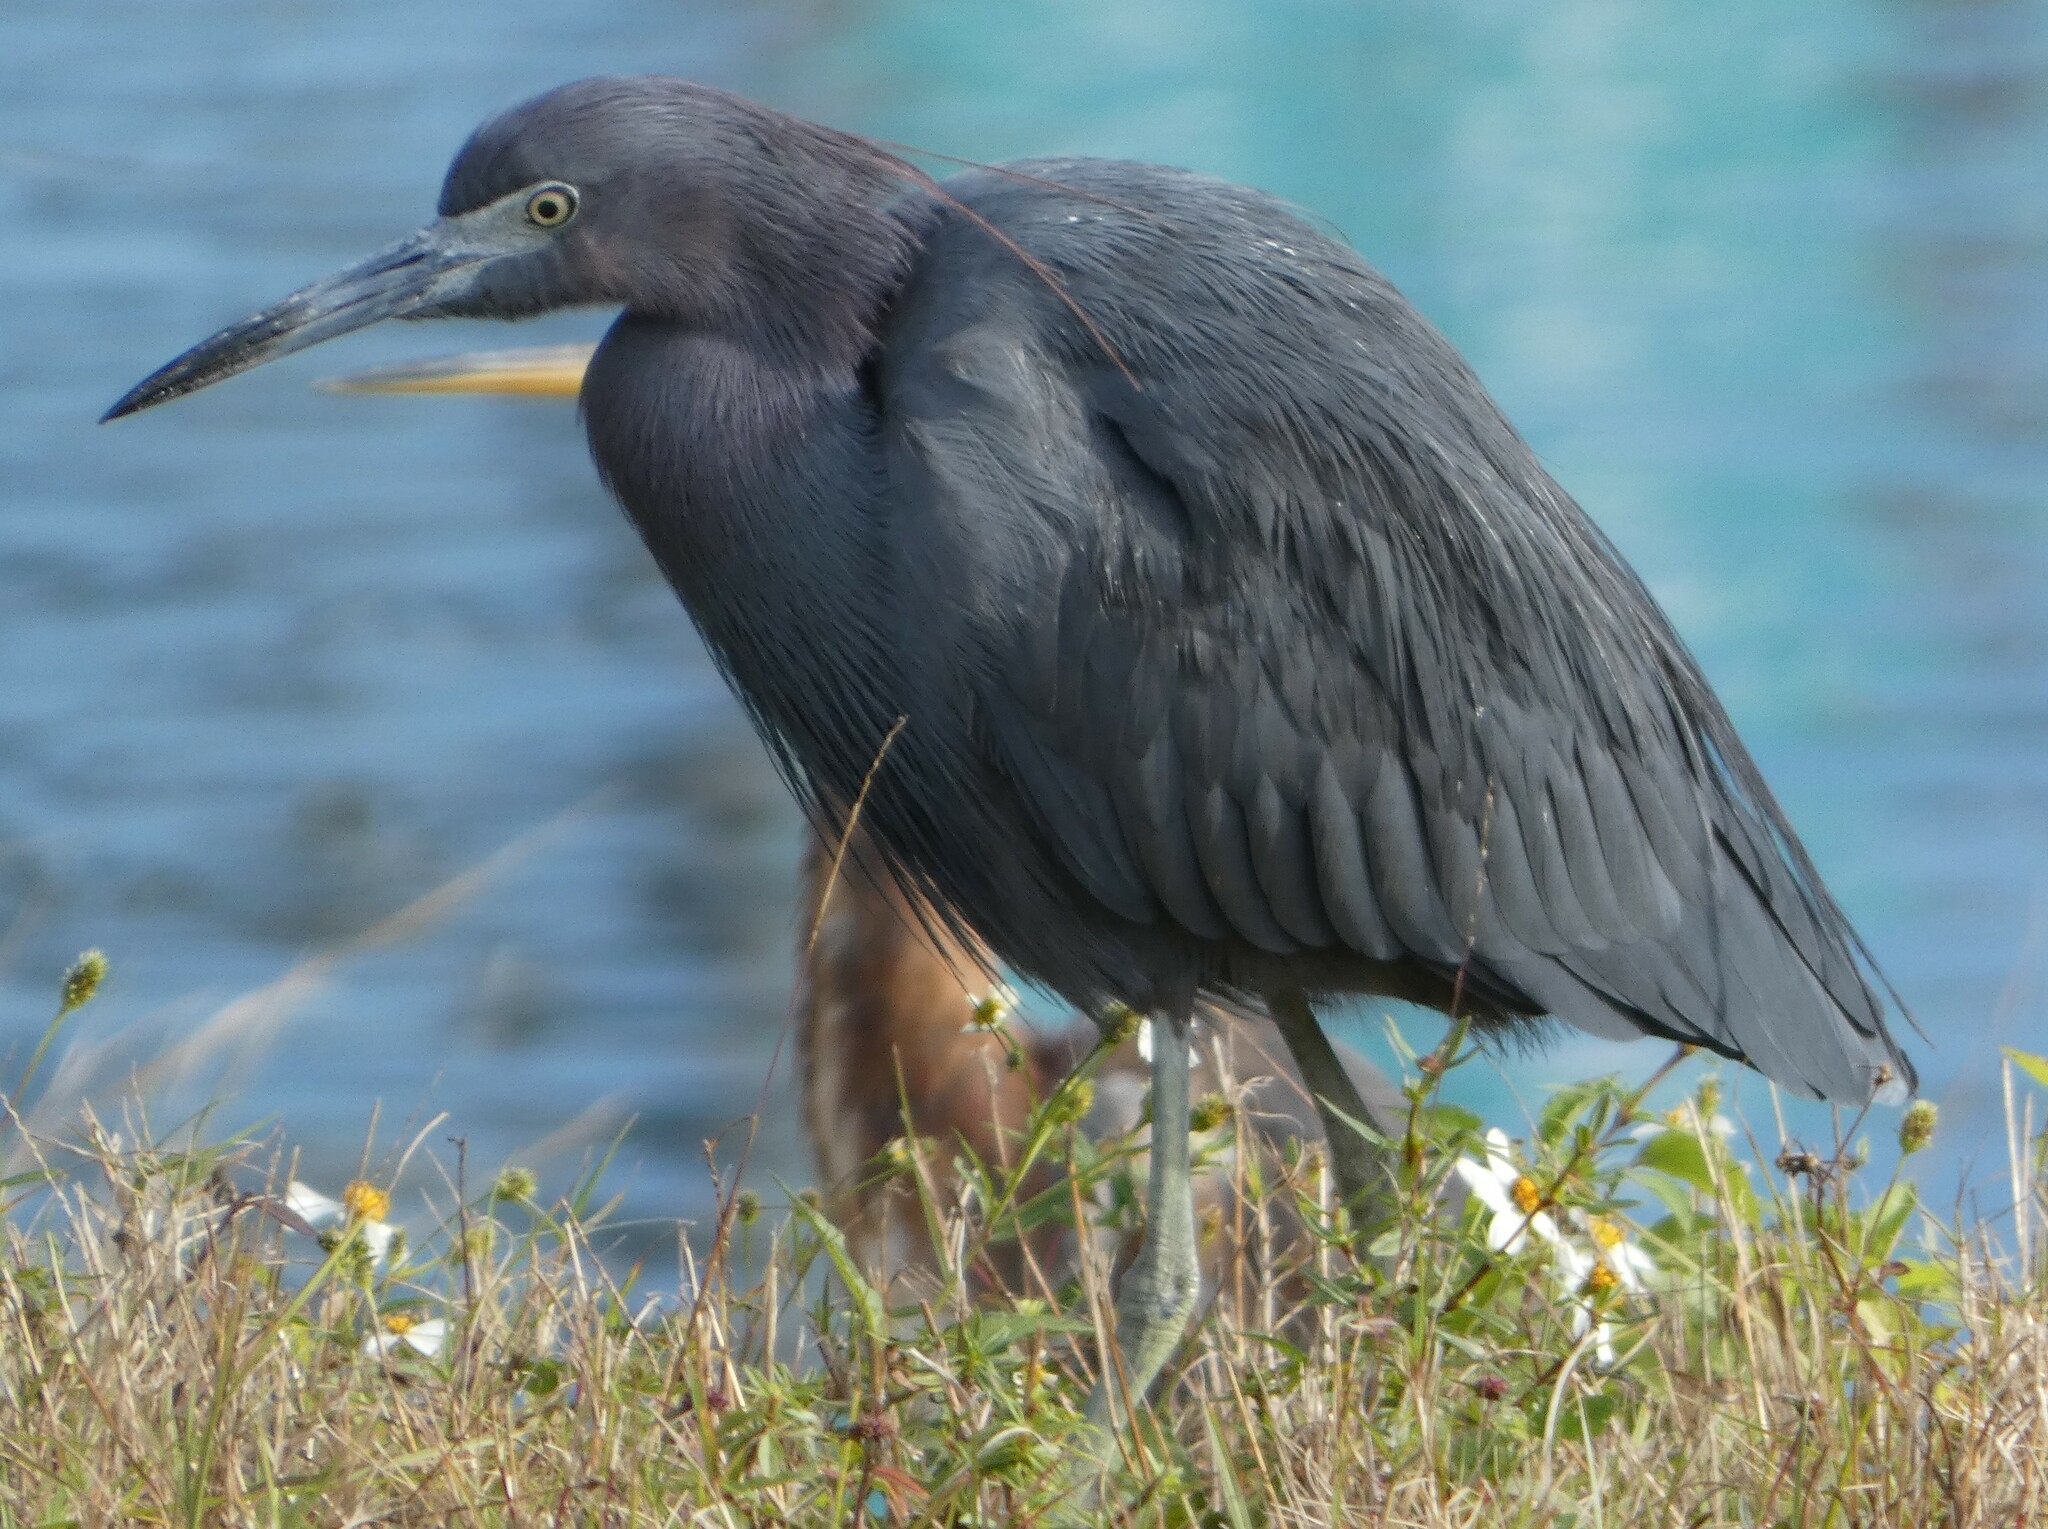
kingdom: Animalia
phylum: Chordata
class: Aves
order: Pelecaniformes
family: Ardeidae
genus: Egretta
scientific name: Egretta caerulea
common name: Little blue heron
